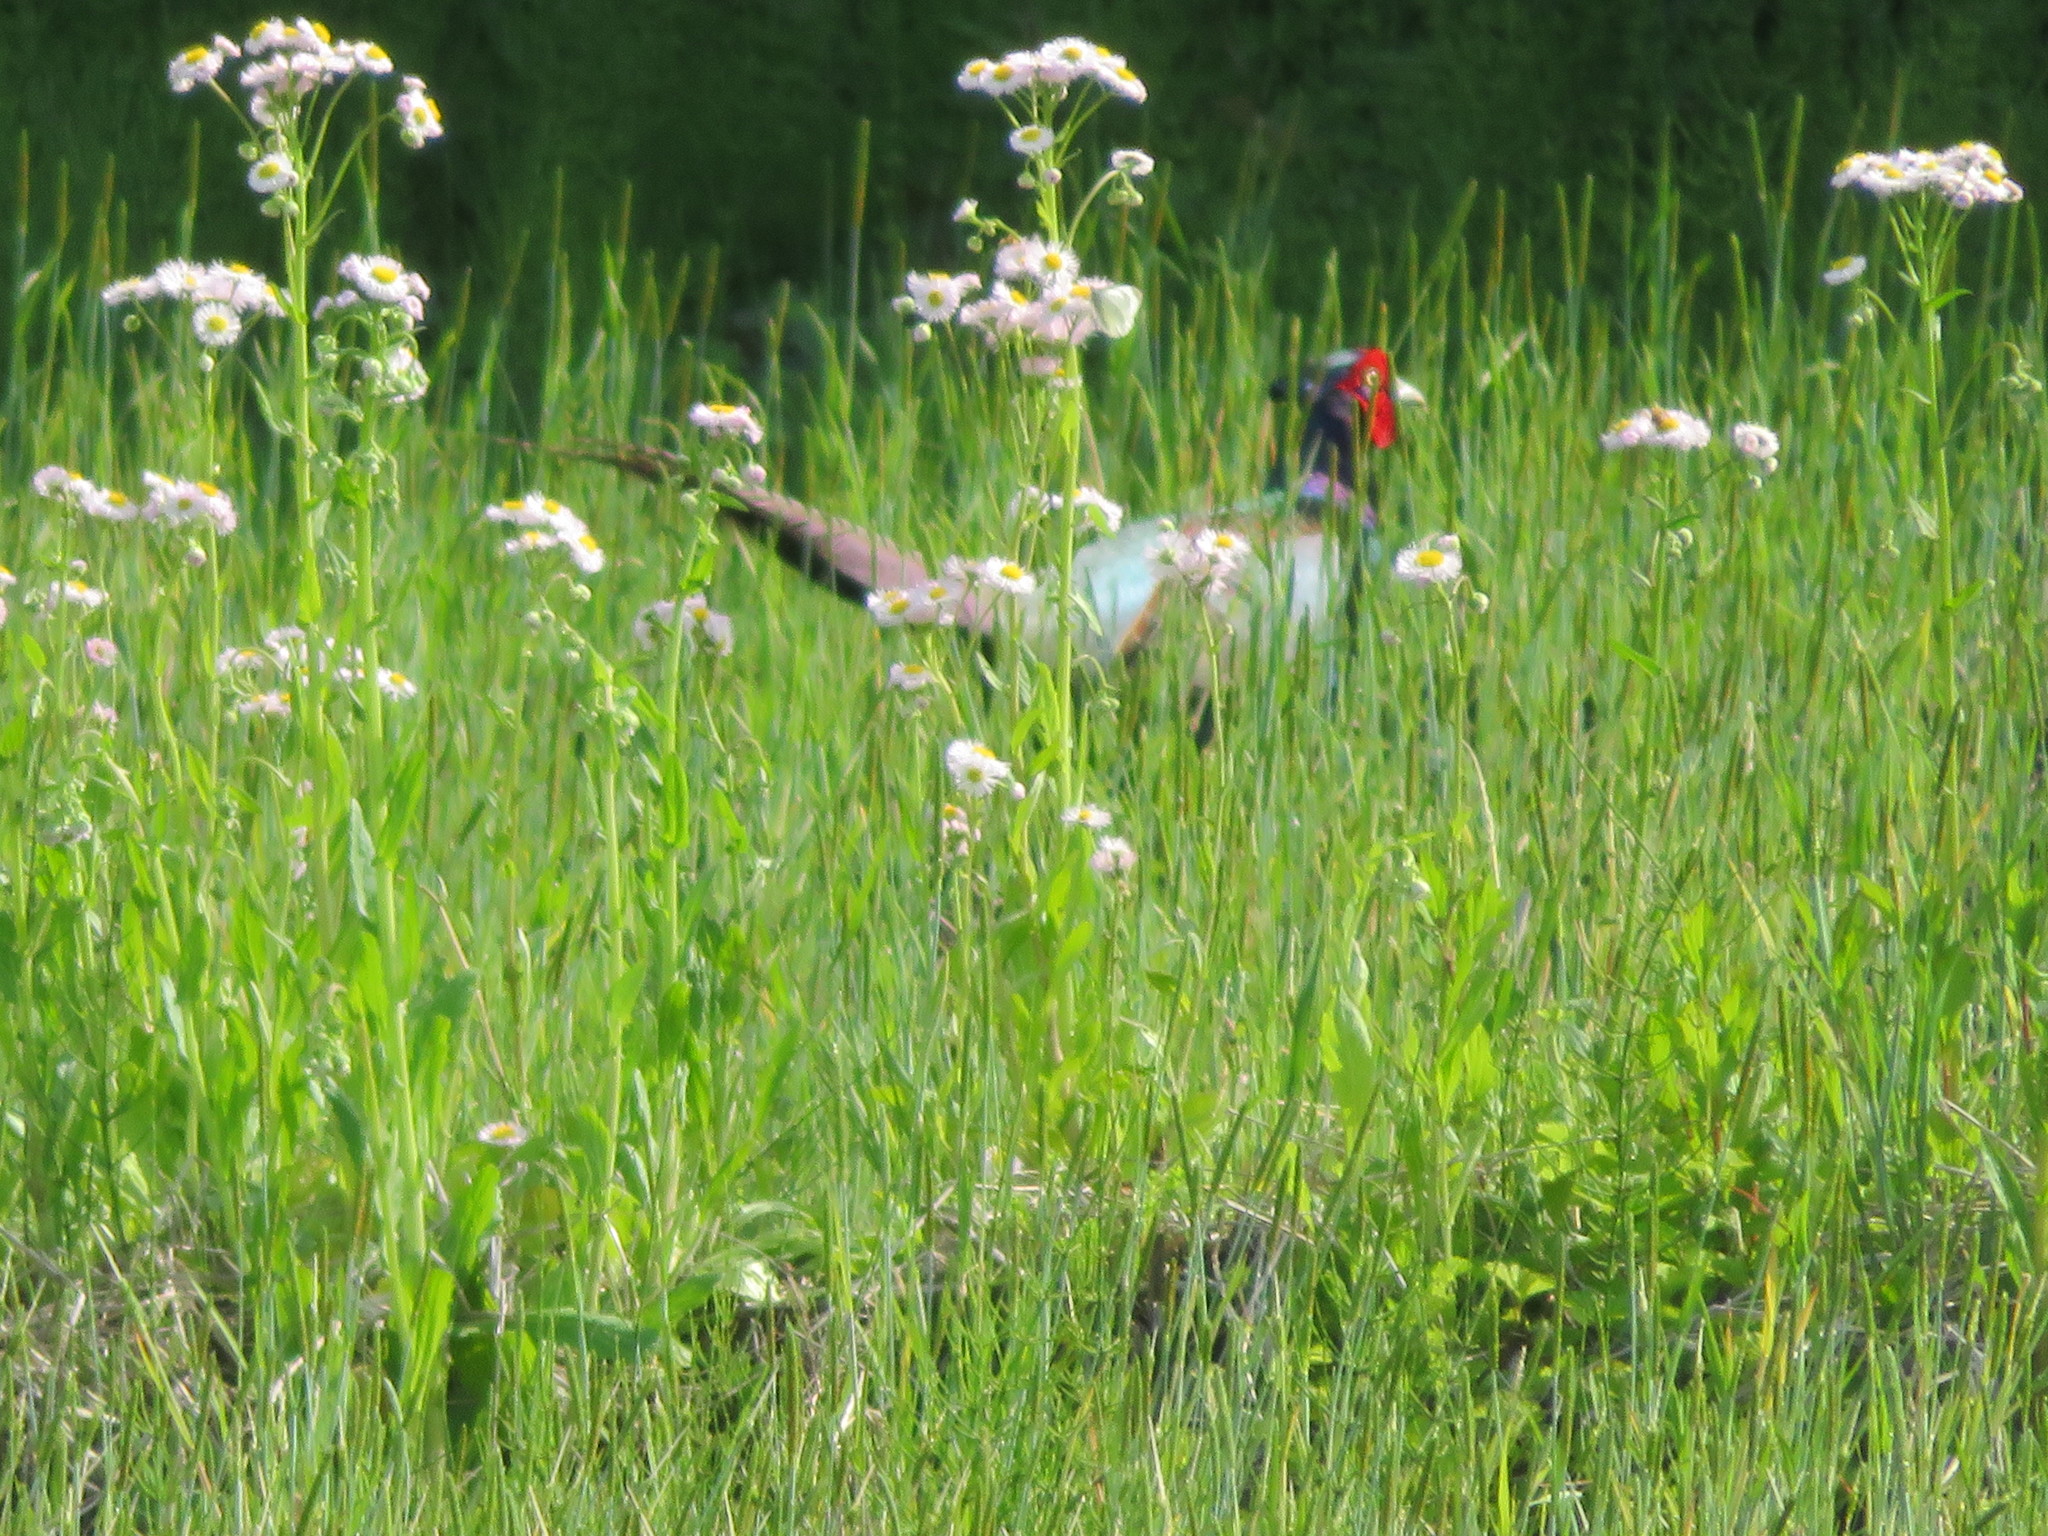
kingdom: Animalia
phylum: Chordata
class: Aves
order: Galliformes
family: Phasianidae
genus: Phasianus
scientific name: Phasianus versicolor
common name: Green pheasant
